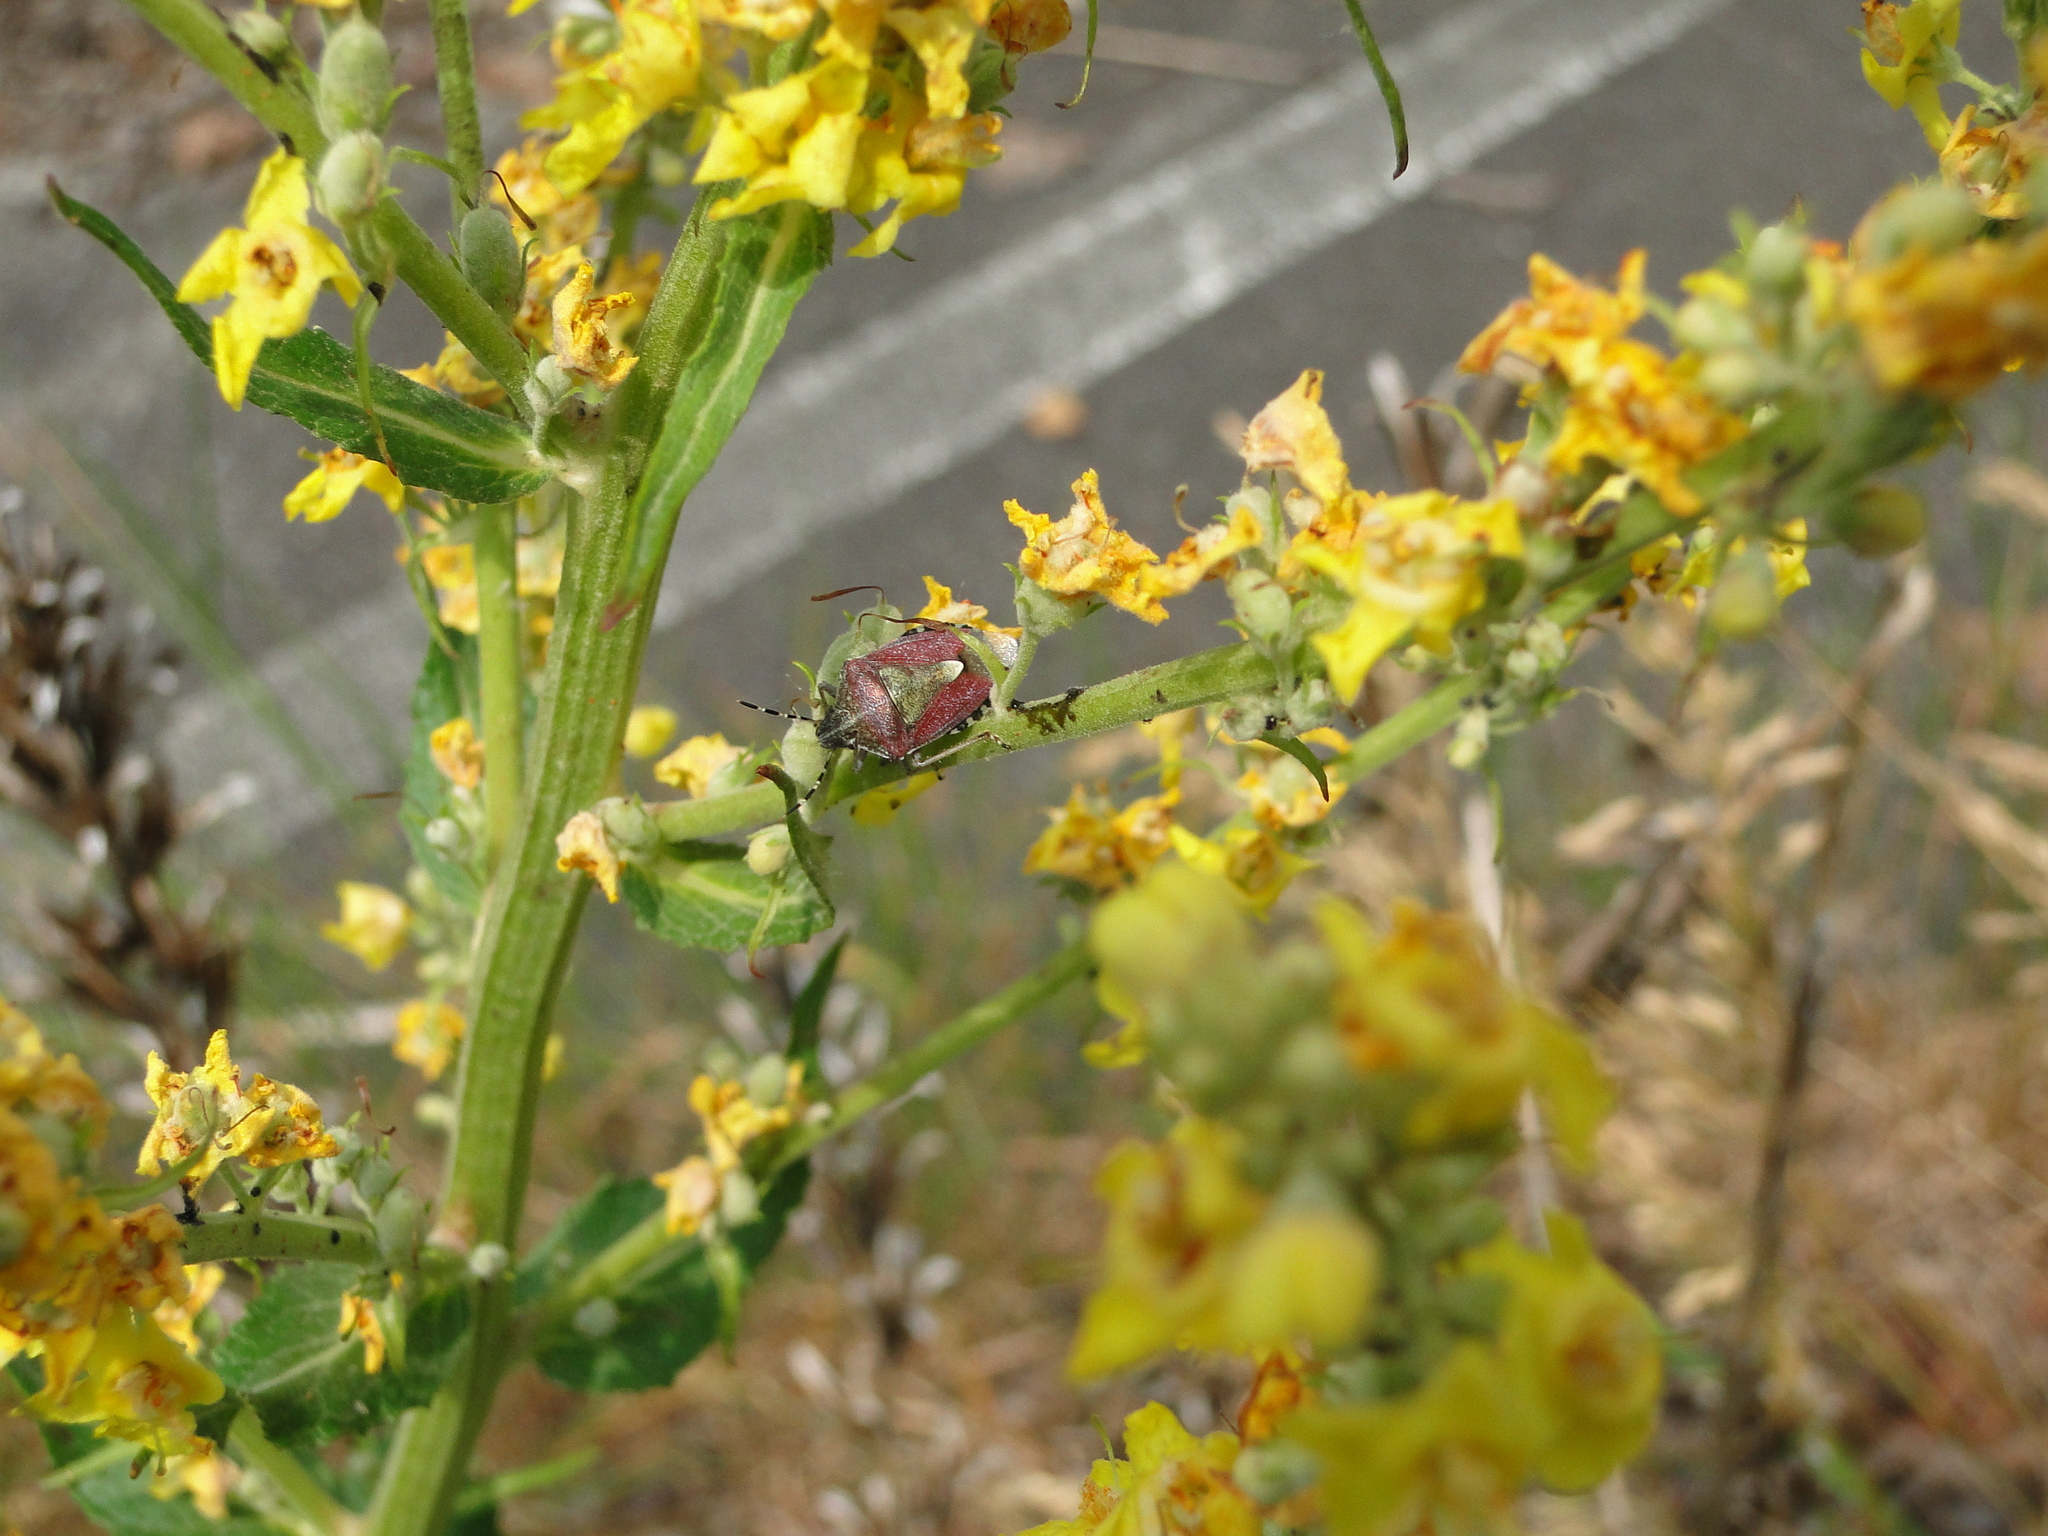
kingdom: Animalia
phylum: Arthropoda
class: Insecta
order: Hemiptera
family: Pentatomidae
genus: Dolycoris
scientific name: Dolycoris baccarum
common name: Sloe bug
